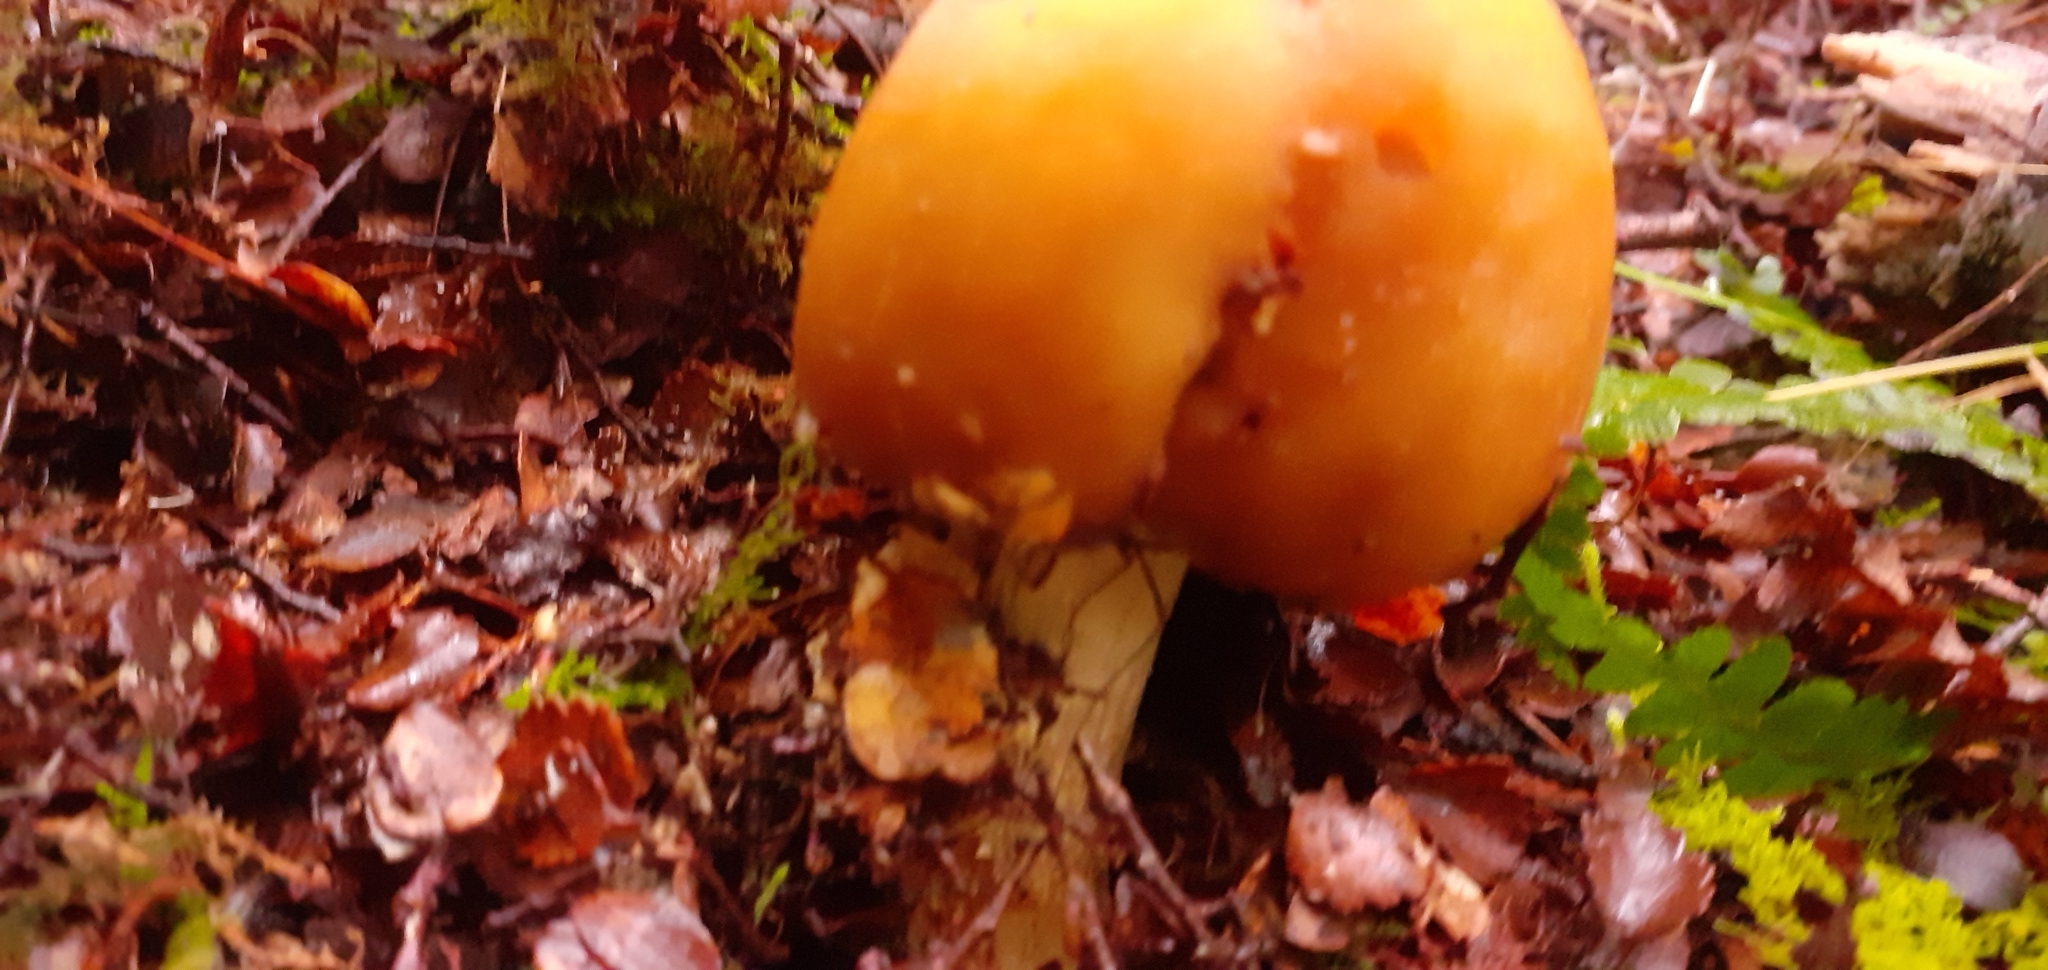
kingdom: Fungi
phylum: Basidiomycota
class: Agaricomycetes
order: Agaricales
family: Cortinariaceae
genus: Cortinarius
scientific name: Cortinarius epiphaeus
